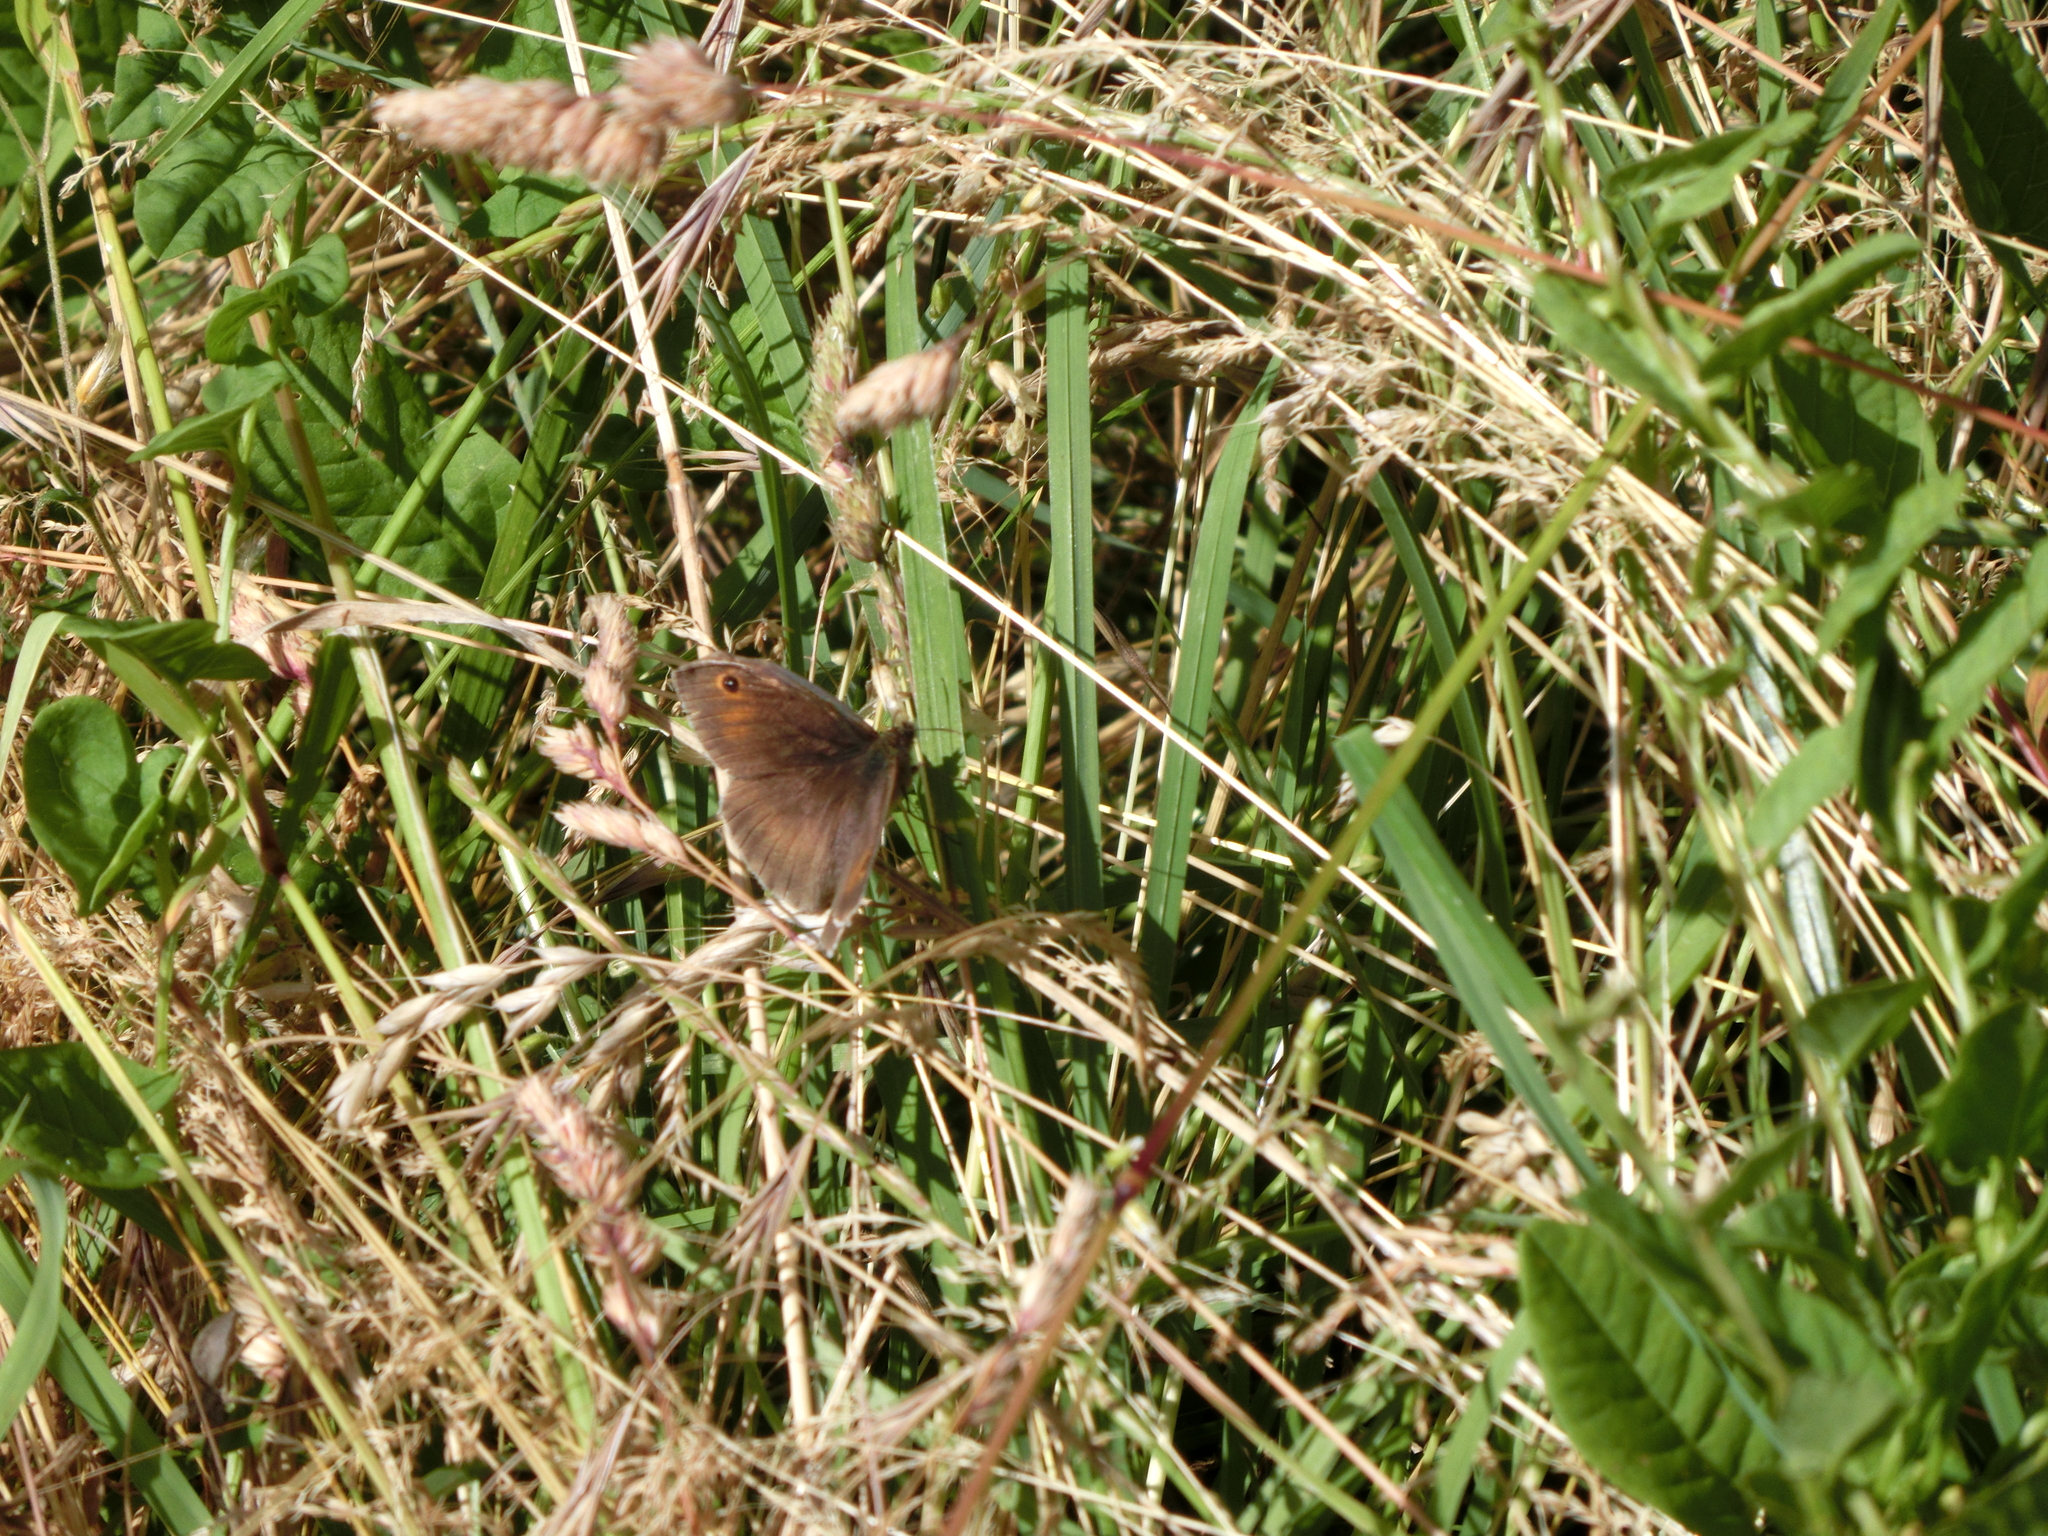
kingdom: Animalia
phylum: Arthropoda
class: Insecta
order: Lepidoptera
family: Nymphalidae
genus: Maniola
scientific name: Maniola jurtina
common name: Meadow brown
